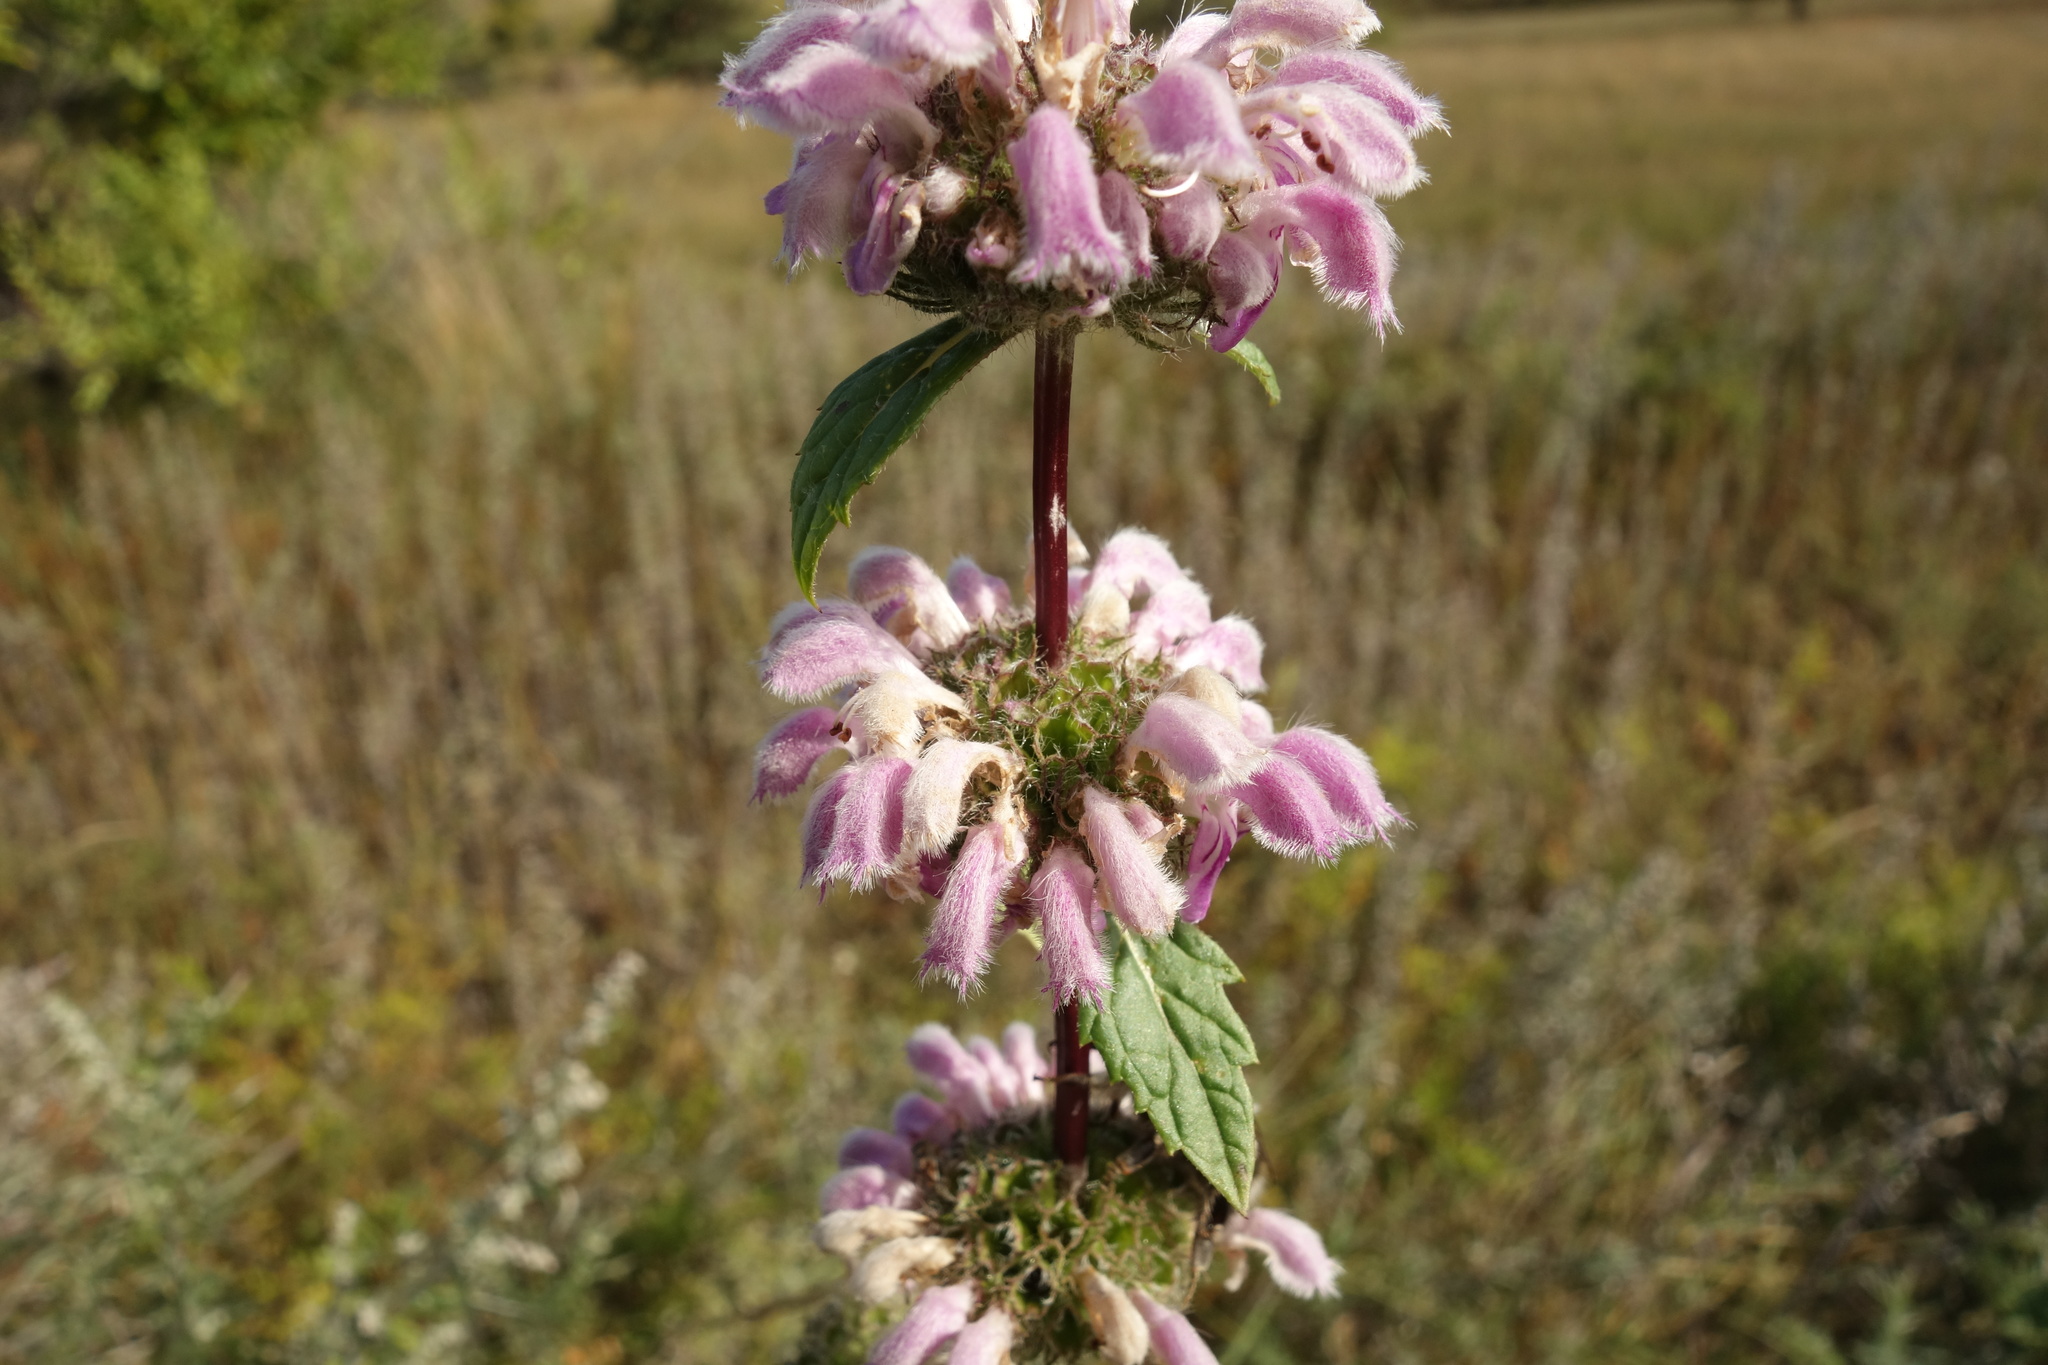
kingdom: Plantae
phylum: Tracheophyta
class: Magnoliopsida
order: Lamiales
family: Lamiaceae
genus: Phlomoides
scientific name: Phlomoides tuberosa
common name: Tuberous jerusalem sage
